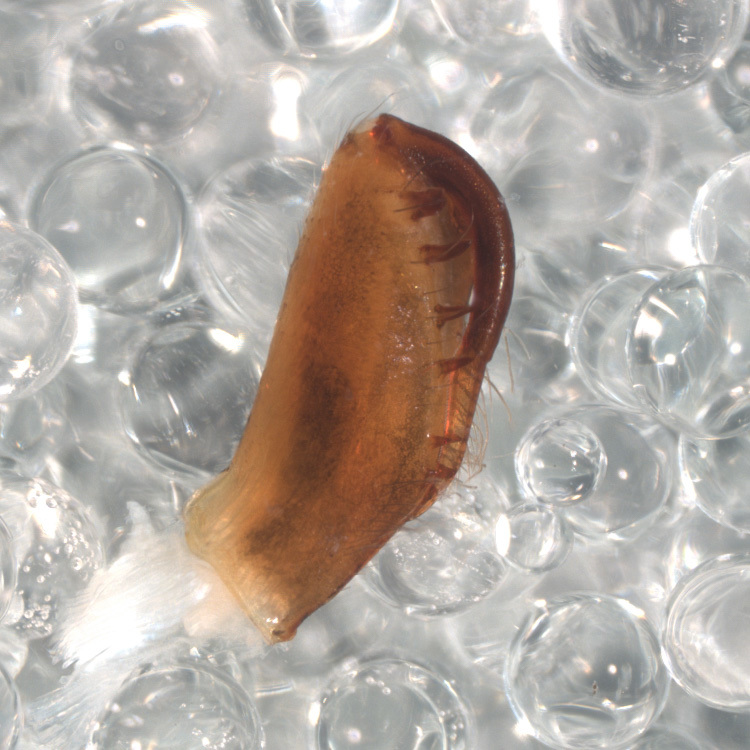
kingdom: Animalia
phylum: Arthropoda
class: Arachnida
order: Araneae
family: Salticidae
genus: Lyssomanes
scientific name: Lyssomanes antillanus
